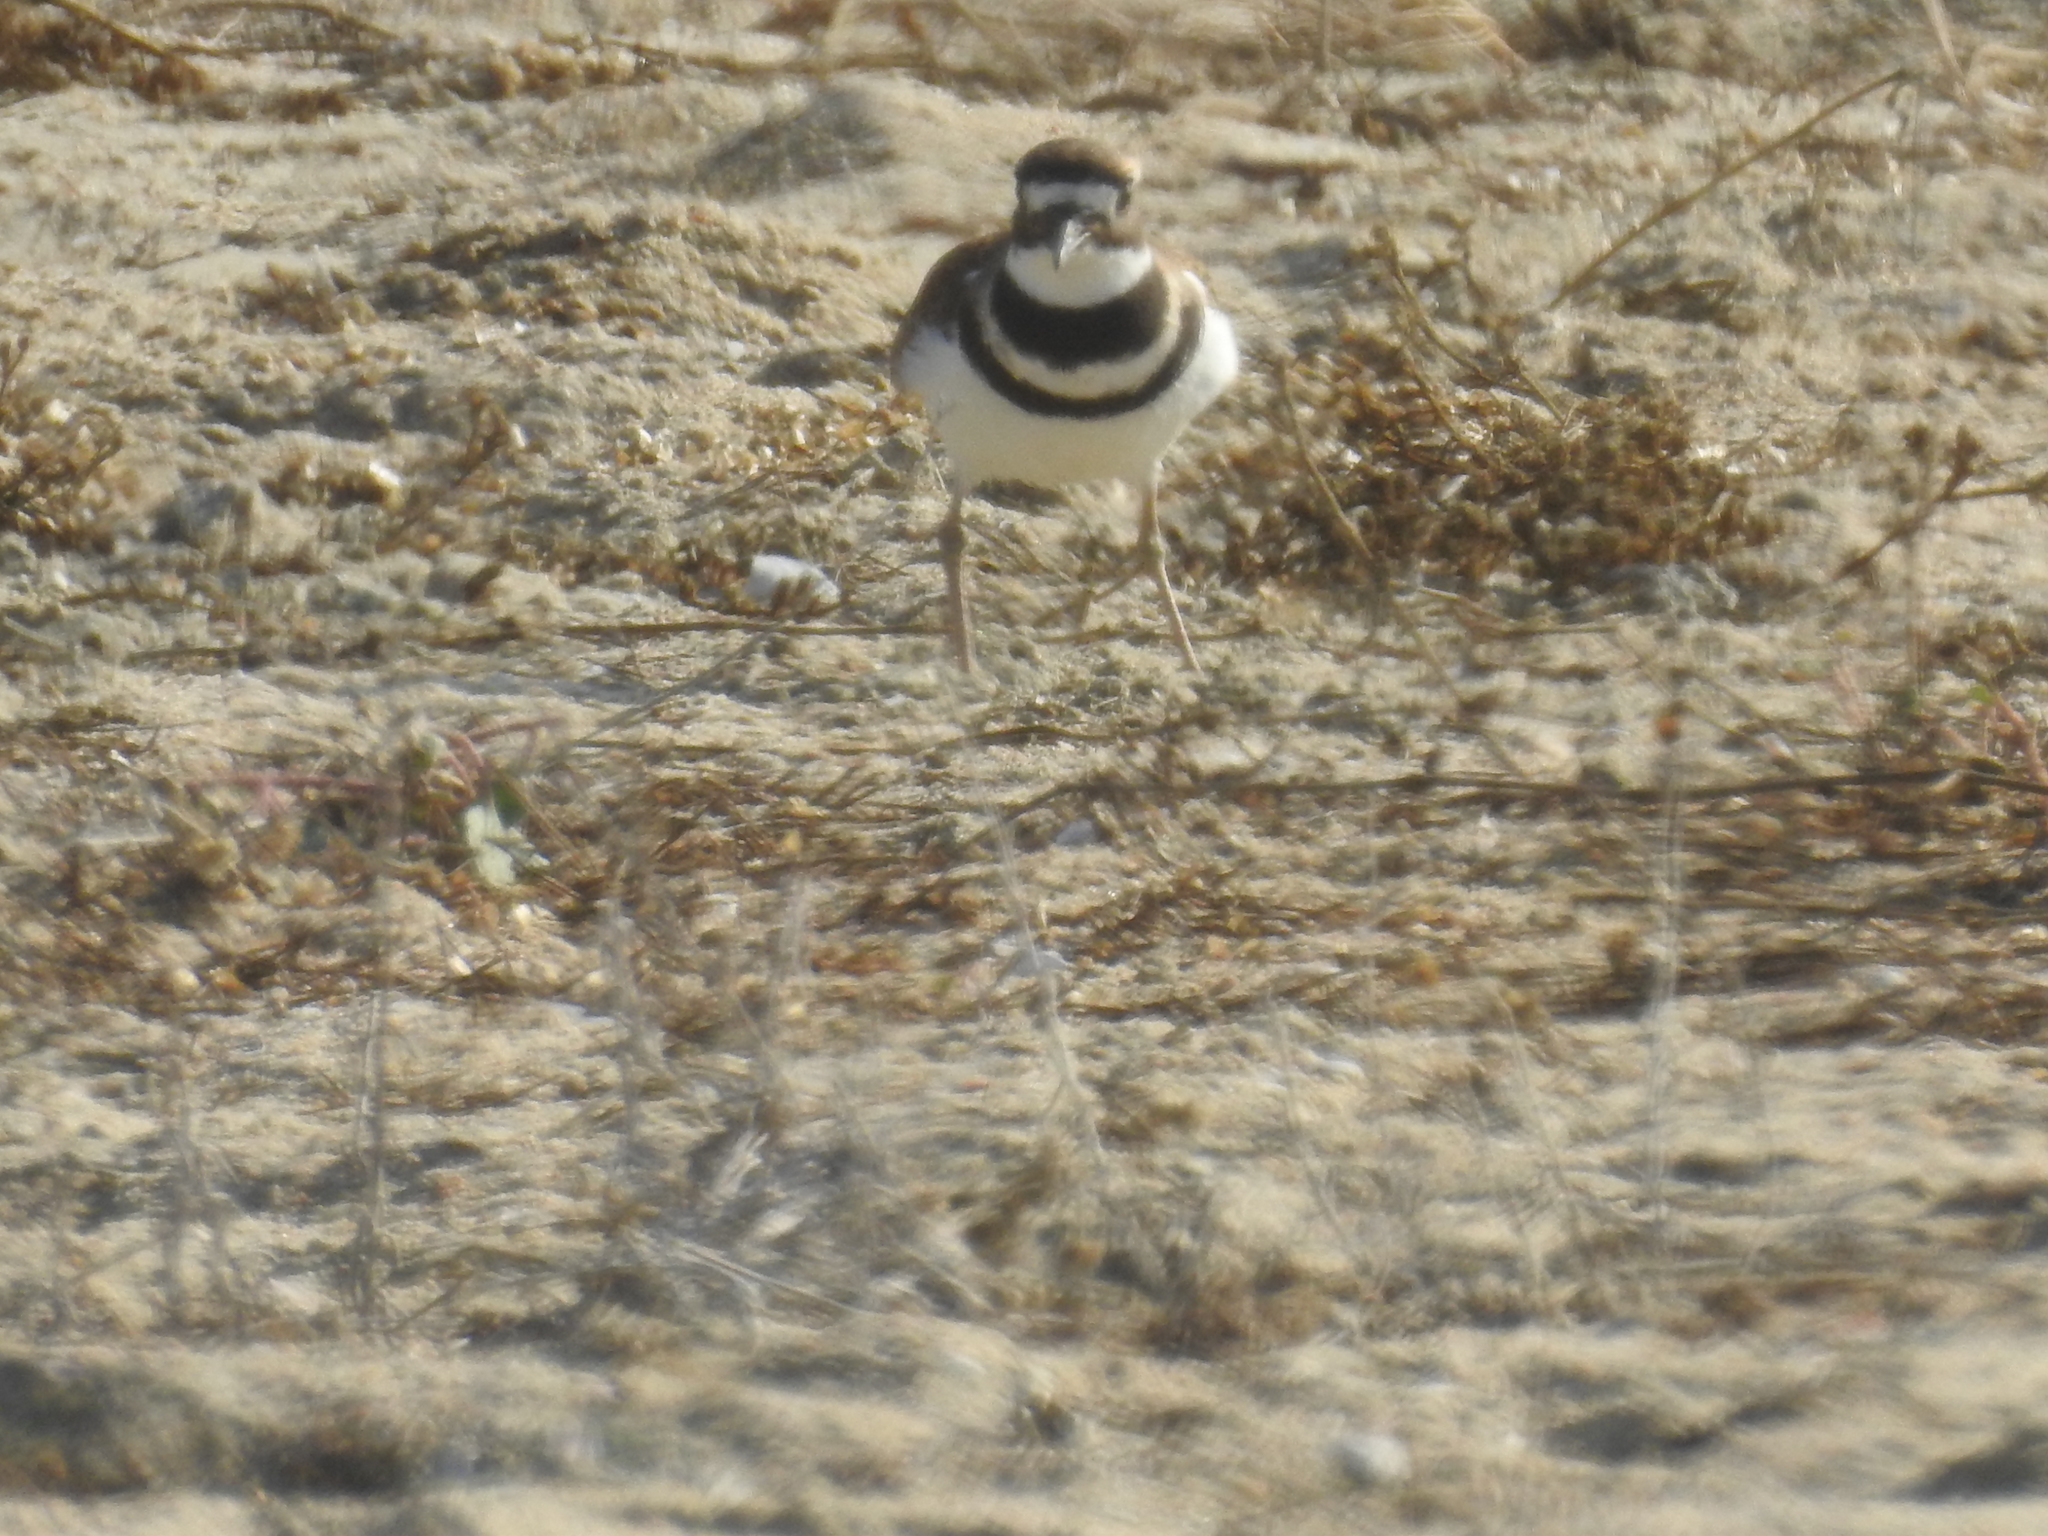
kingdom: Animalia
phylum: Chordata
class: Aves
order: Charadriiformes
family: Charadriidae
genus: Charadrius
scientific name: Charadrius vociferus
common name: Killdeer
